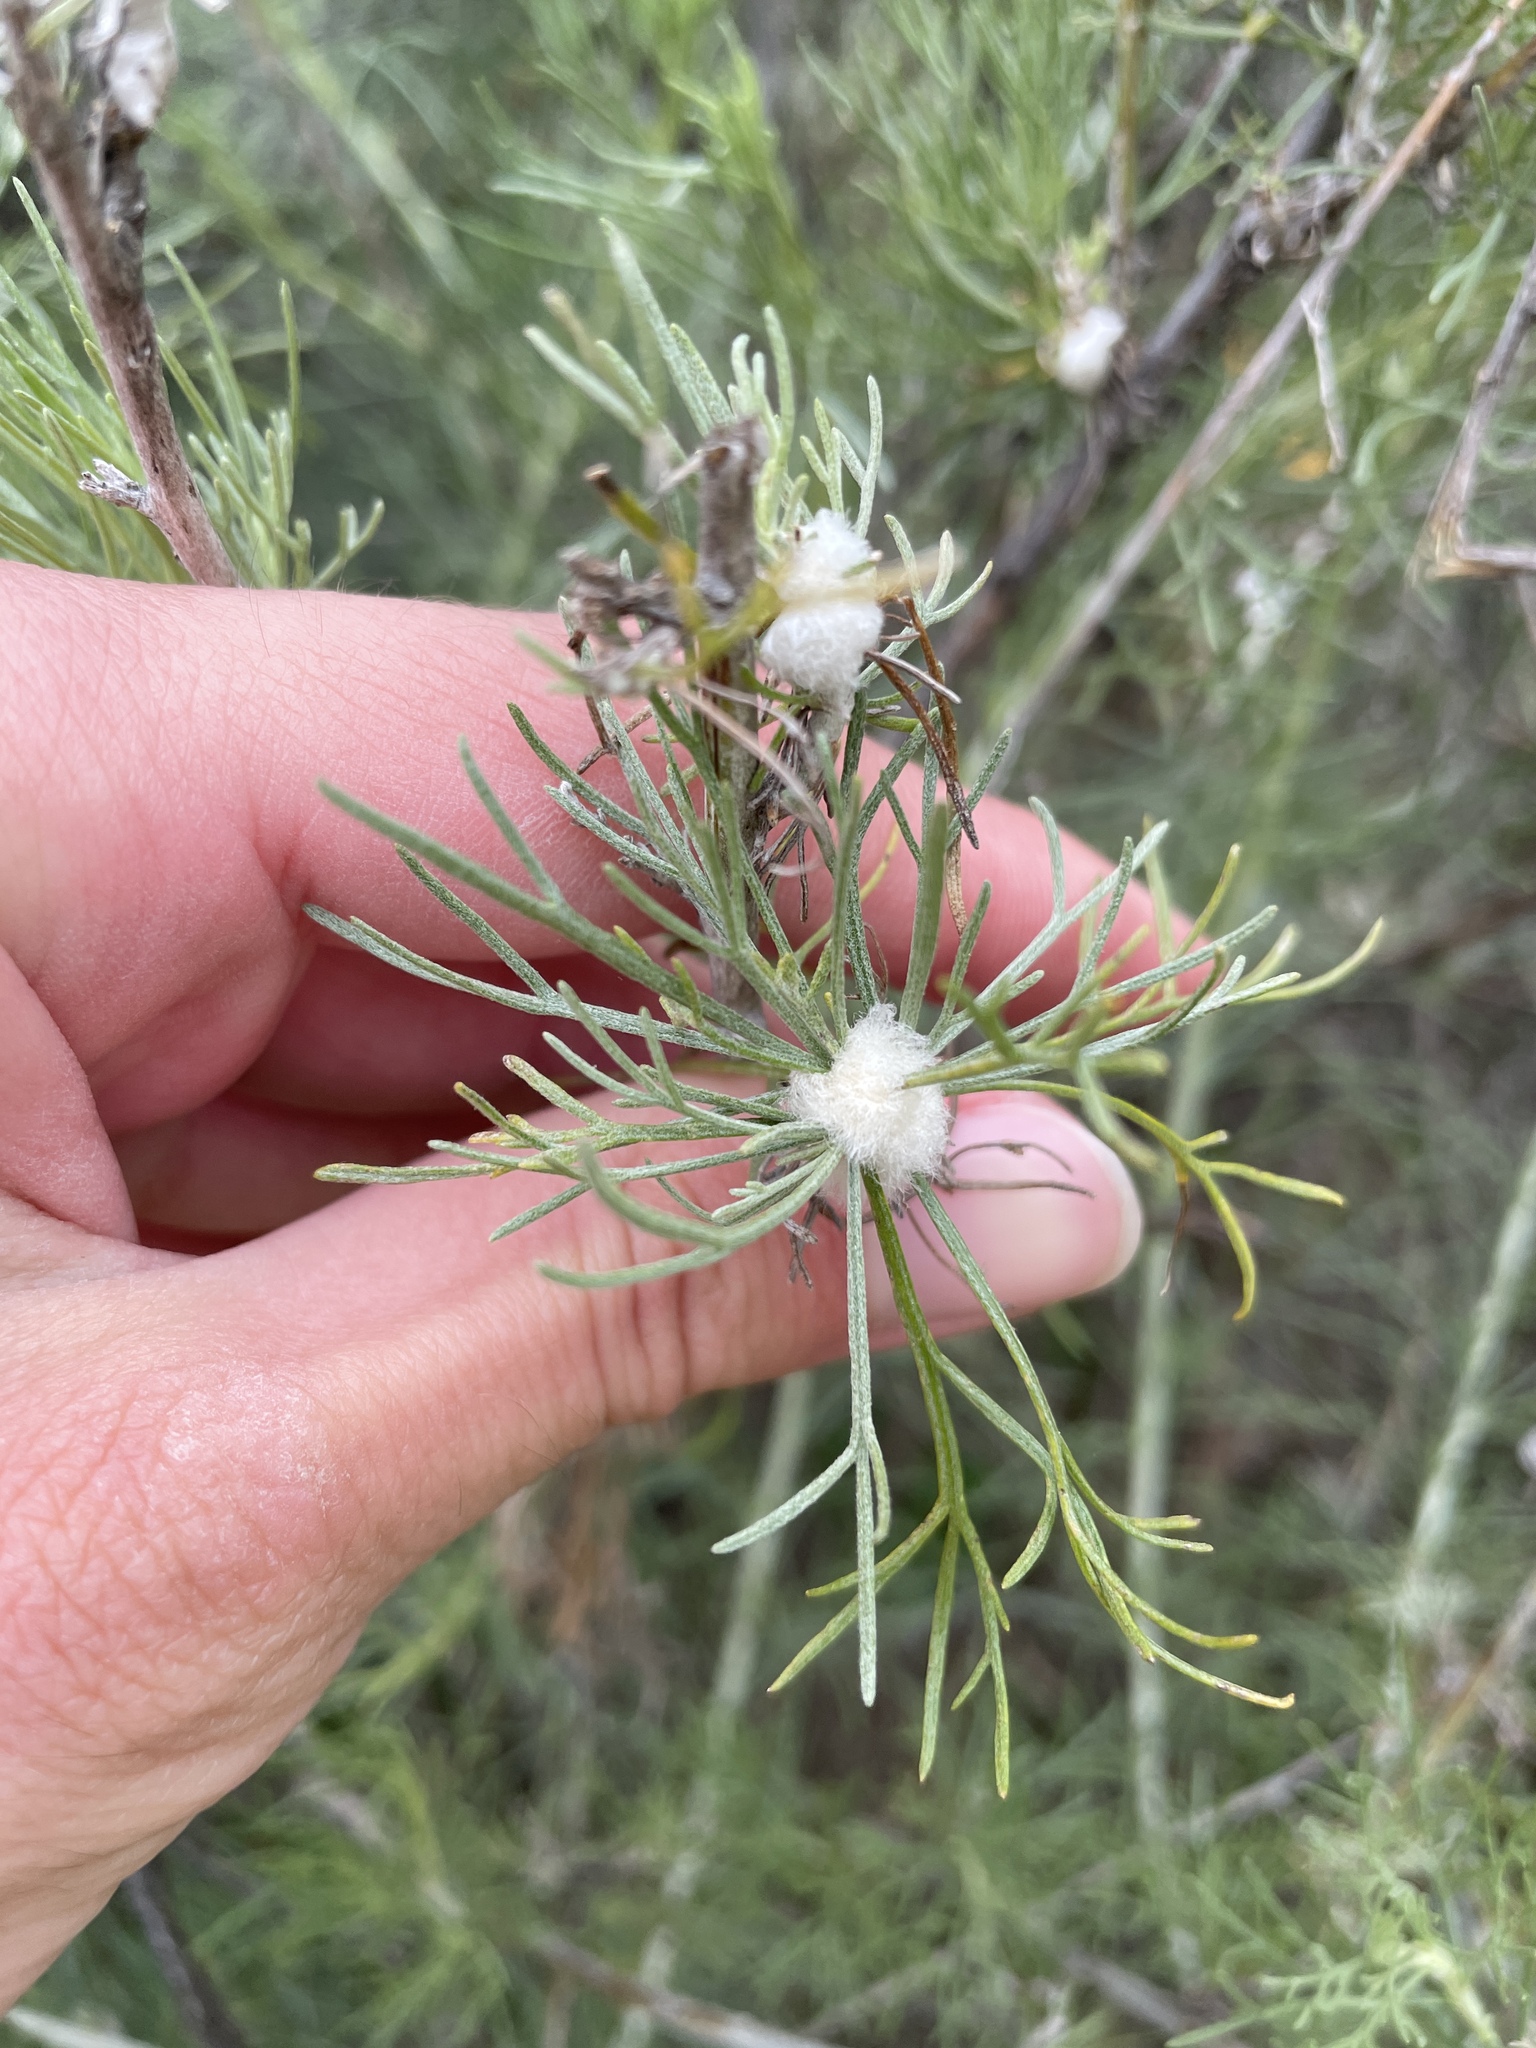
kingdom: Animalia
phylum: Arthropoda
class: Insecta
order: Diptera
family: Cecidomyiidae
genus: Rhopalomyia
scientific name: Rhopalomyia floccosa
